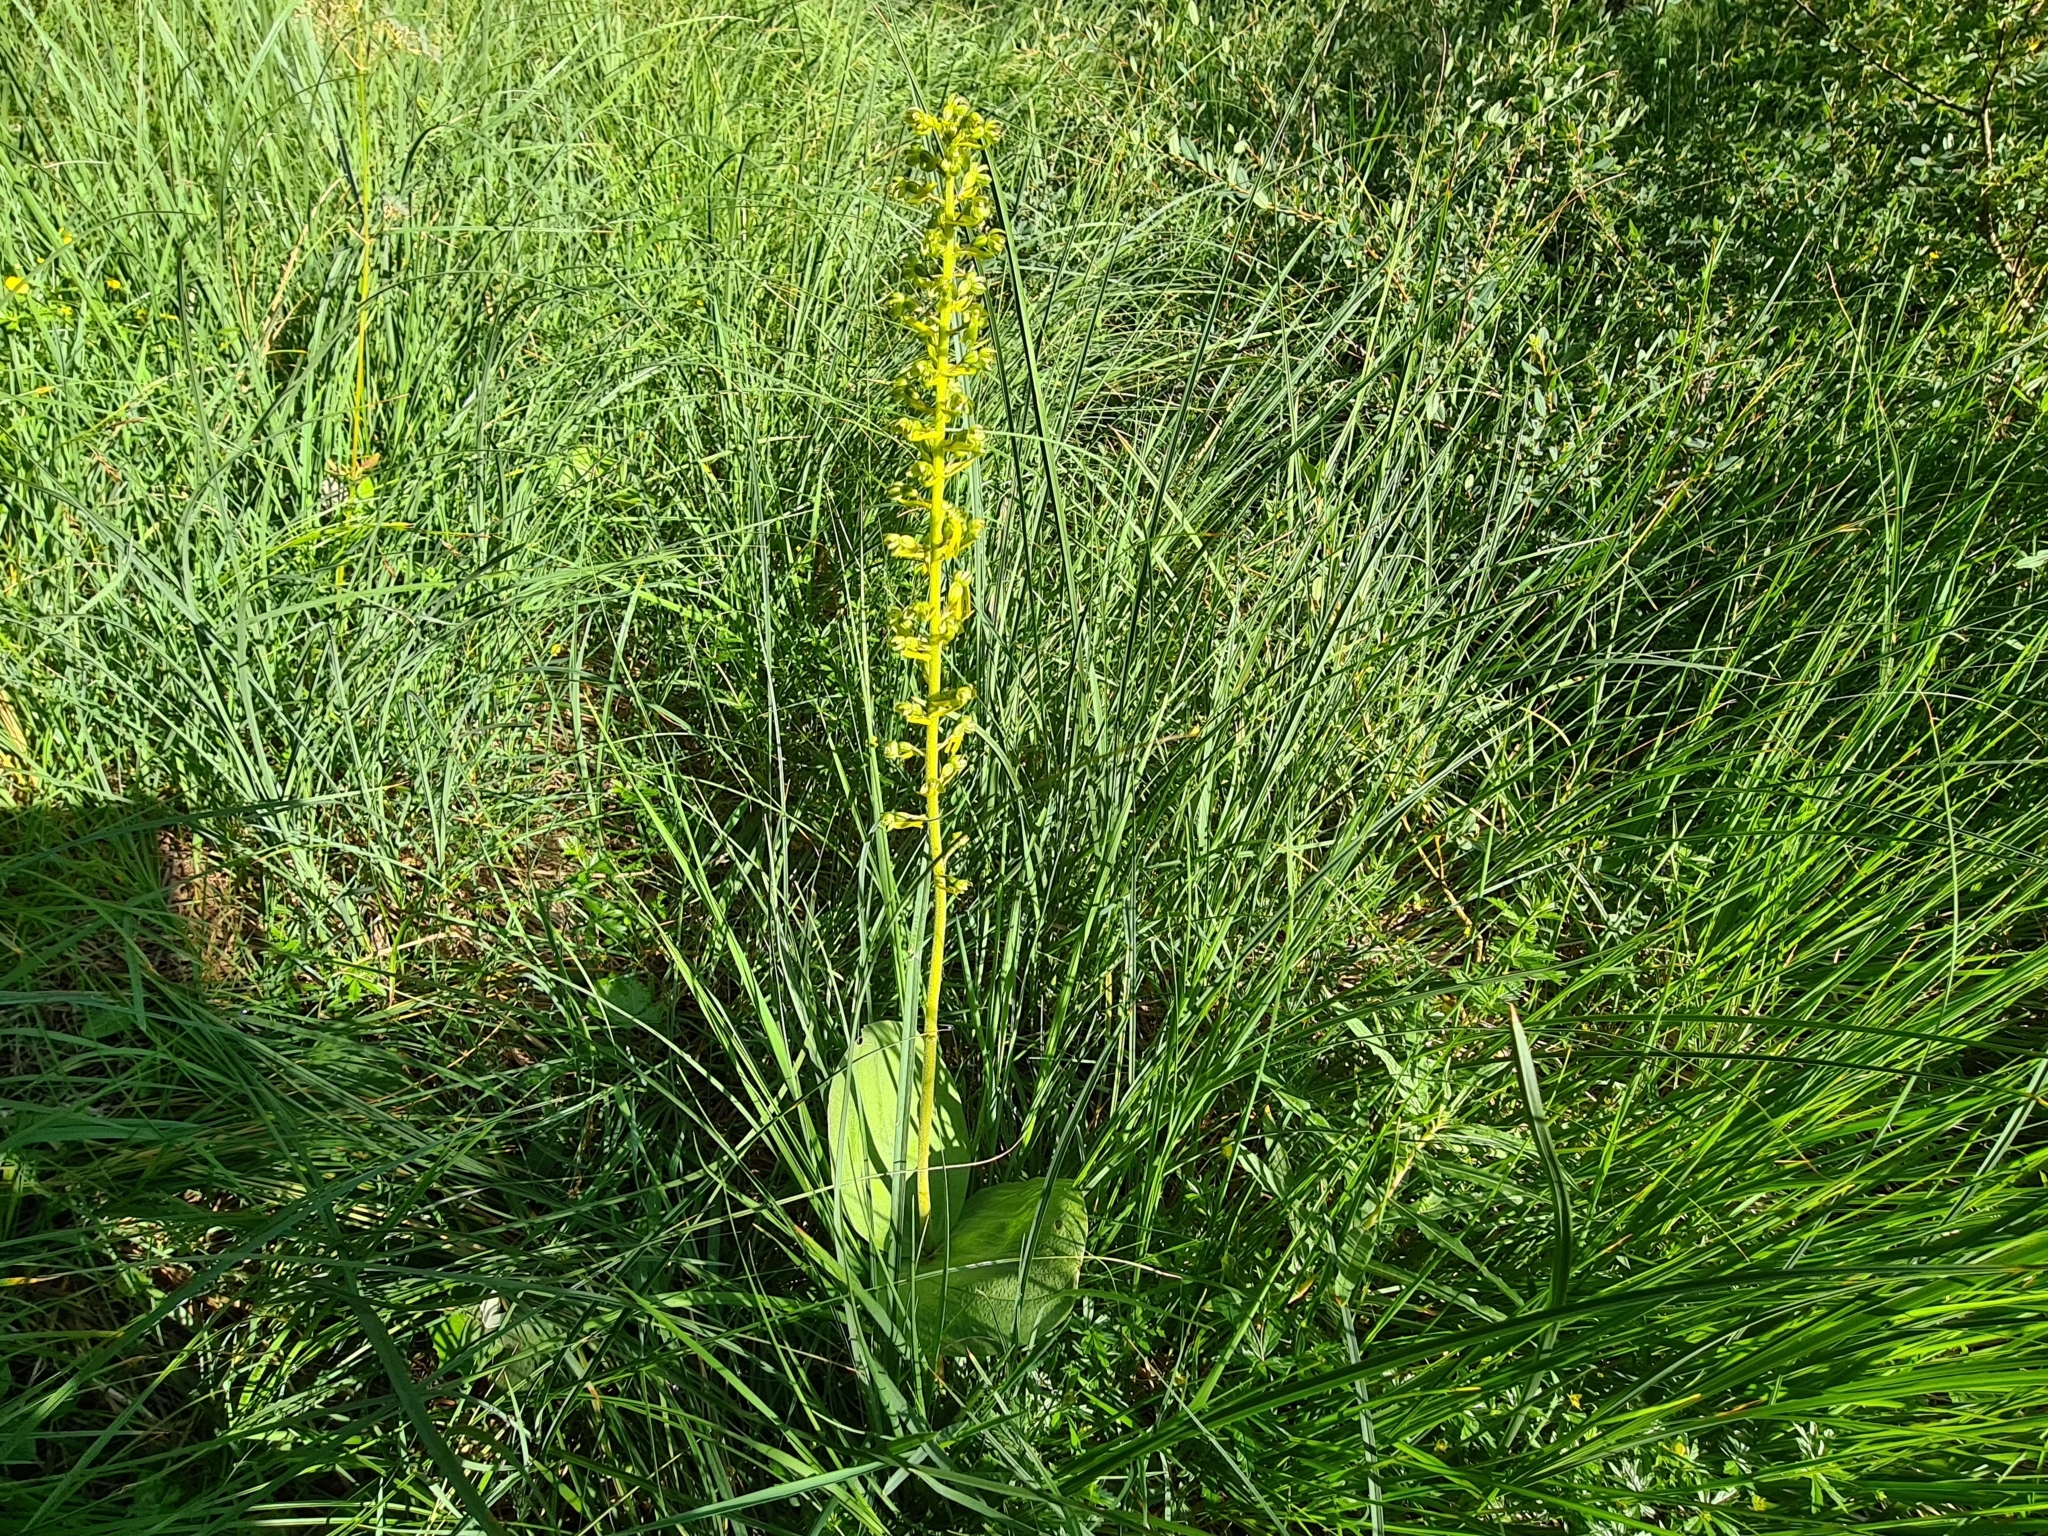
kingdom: Plantae
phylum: Tracheophyta
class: Liliopsida
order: Asparagales
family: Orchidaceae
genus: Neottia
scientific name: Neottia ovata
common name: Common twayblade
